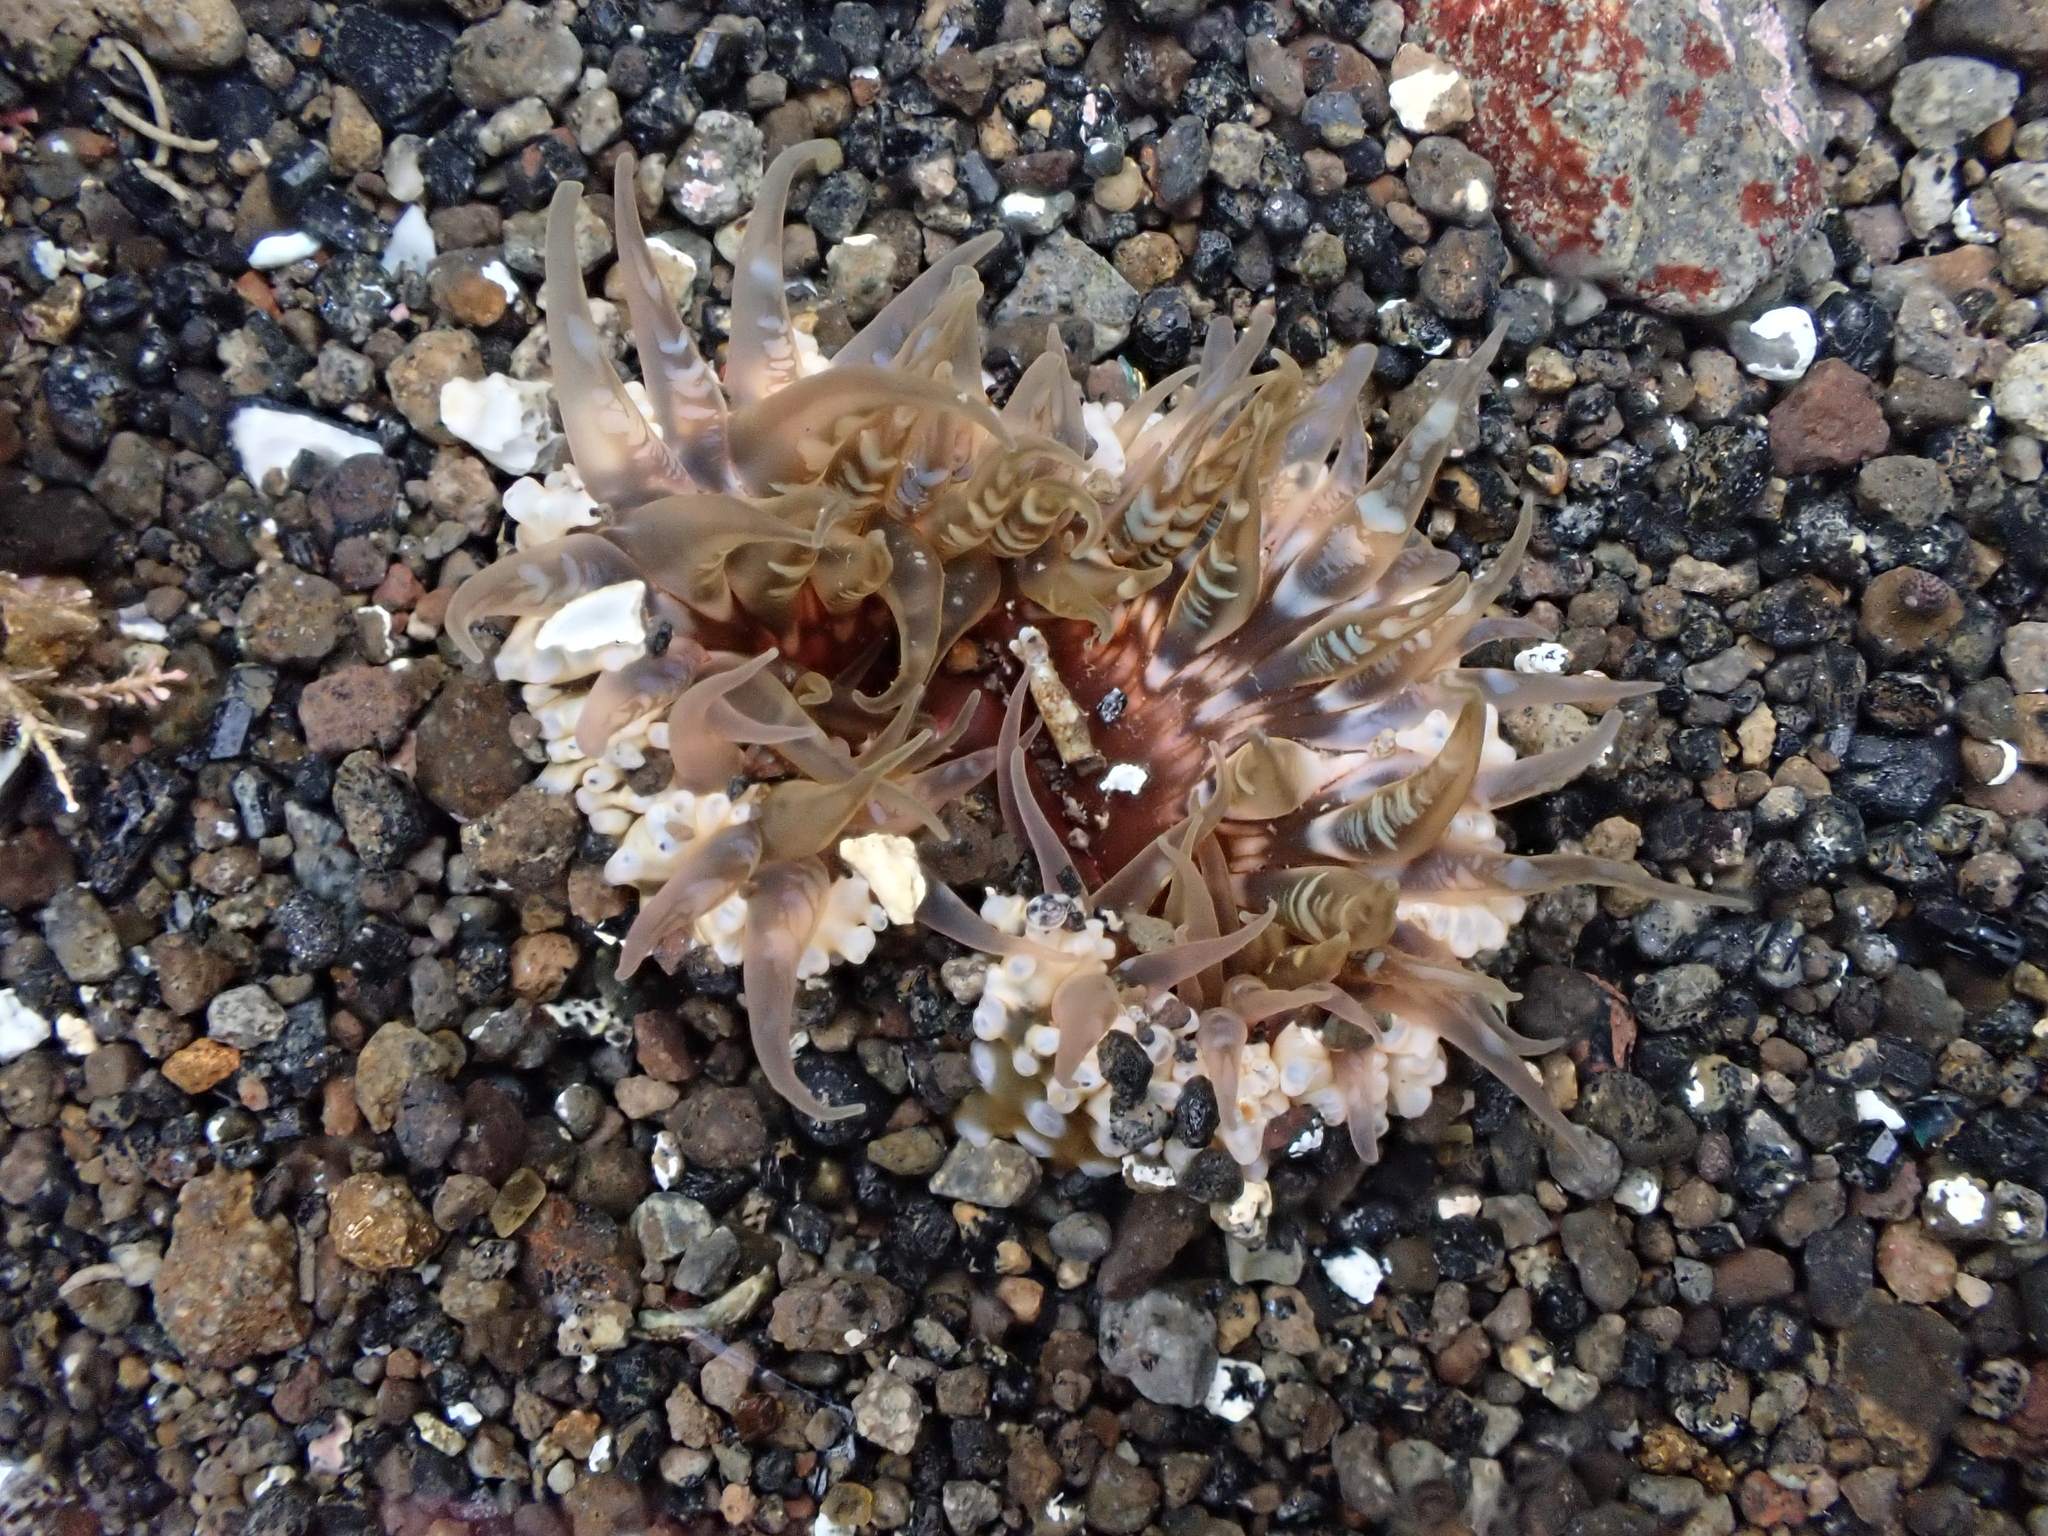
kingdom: Animalia
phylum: Cnidaria
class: Anthozoa
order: Actiniaria
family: Actiniidae
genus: Oulactis
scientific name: Oulactis muscosa
